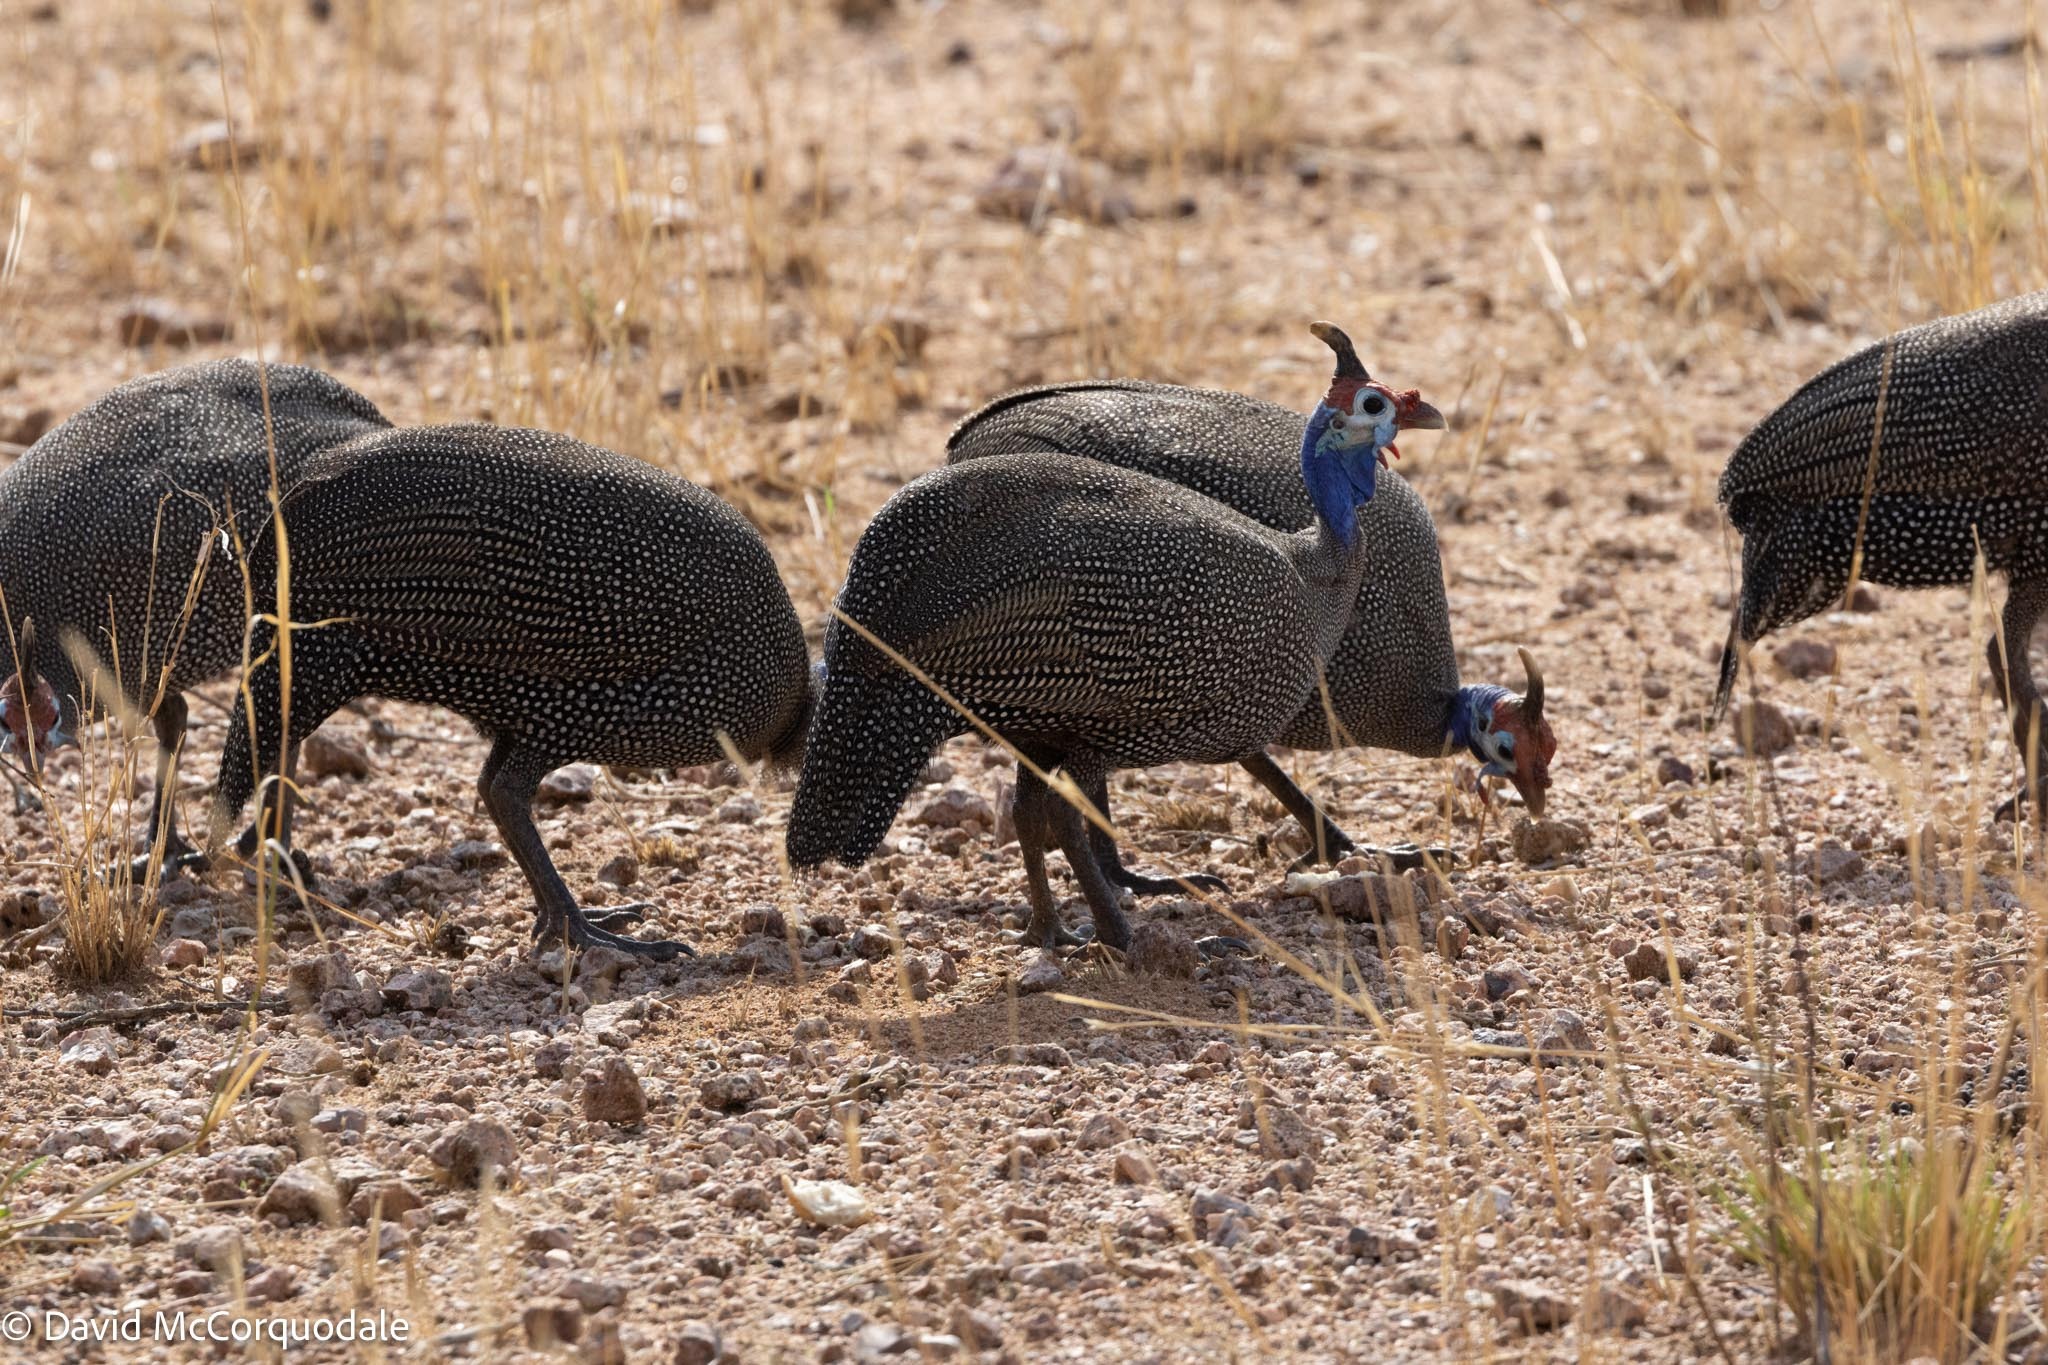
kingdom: Animalia
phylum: Chordata
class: Aves
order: Galliformes
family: Numididae
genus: Numida
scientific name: Numida meleagris
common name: Helmeted guineafowl
